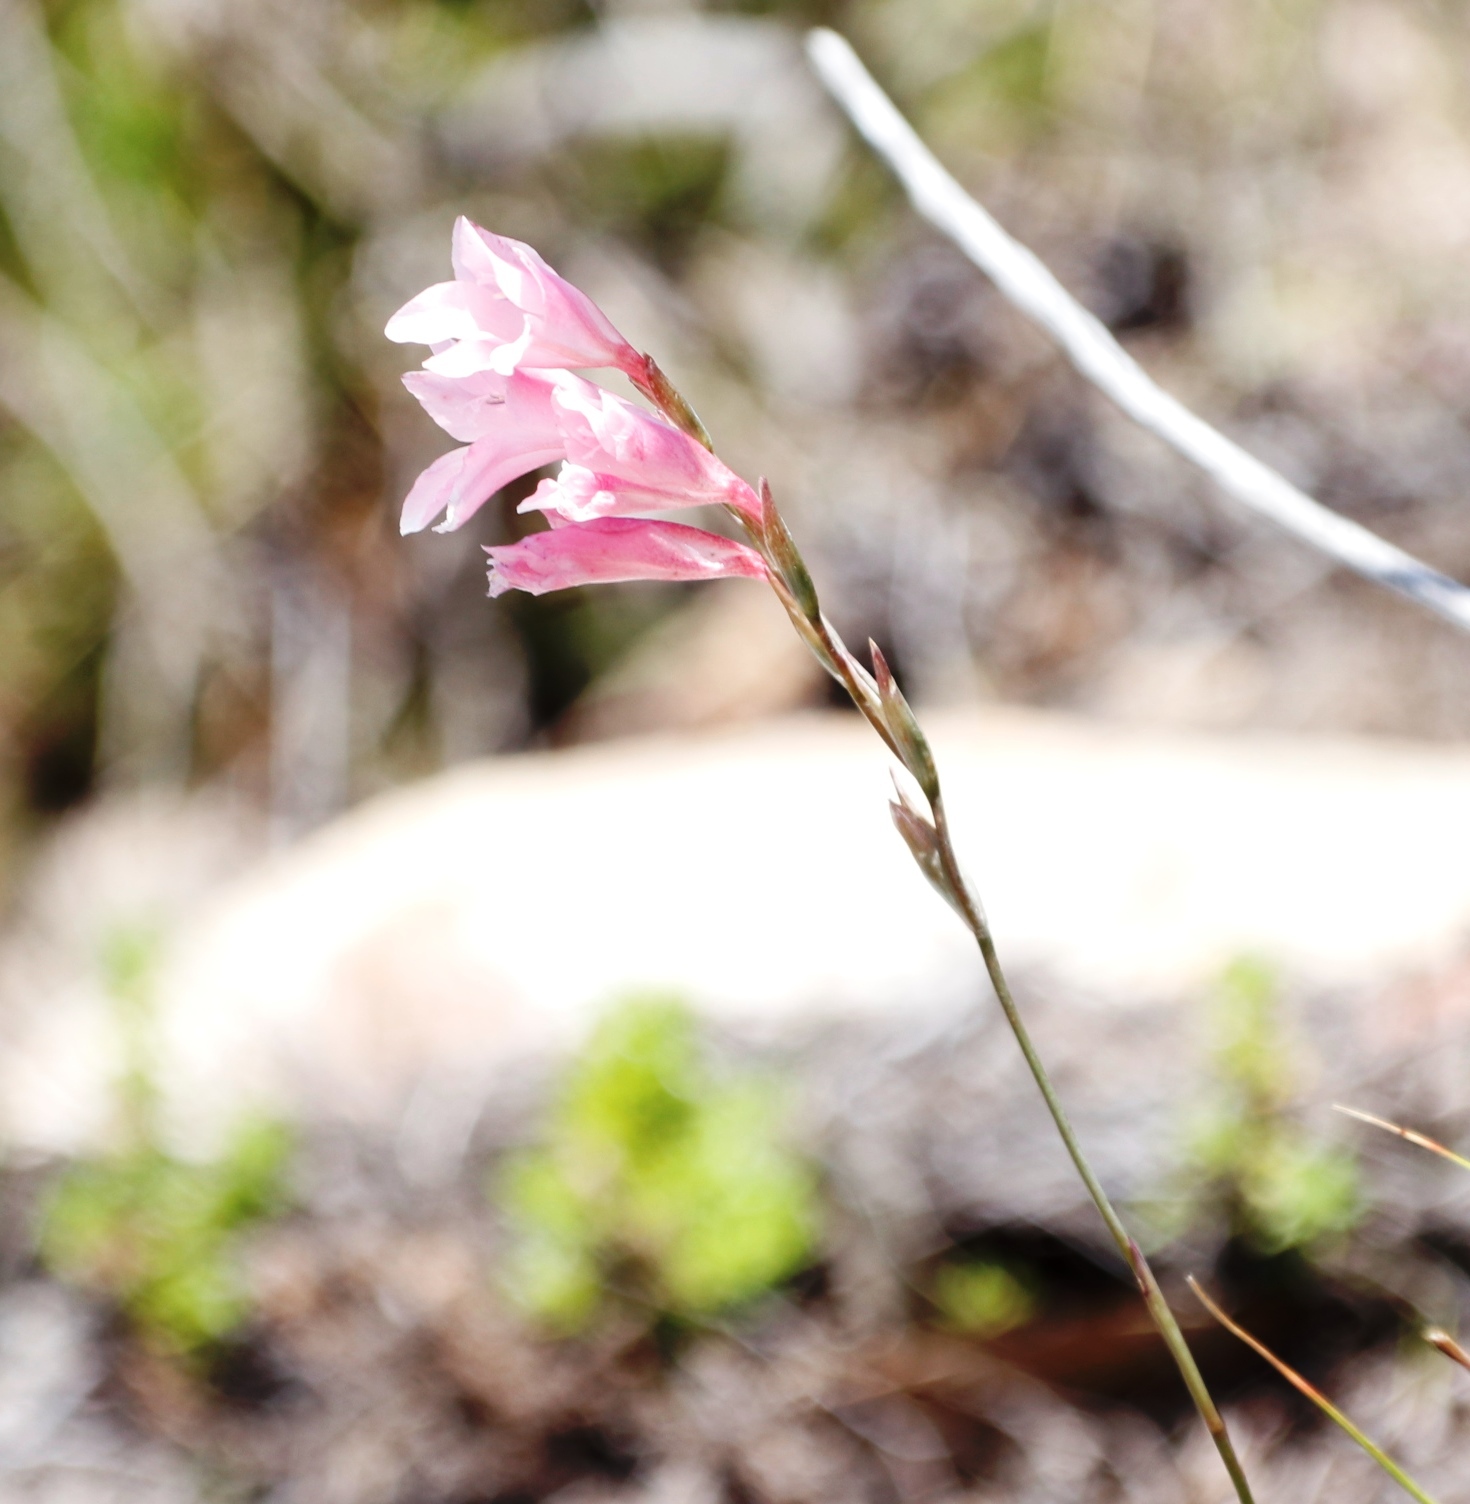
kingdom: Plantae
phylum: Tracheophyta
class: Liliopsida
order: Asparagales
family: Iridaceae
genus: Gladiolus
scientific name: Gladiolus brevifolius
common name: March pypie
